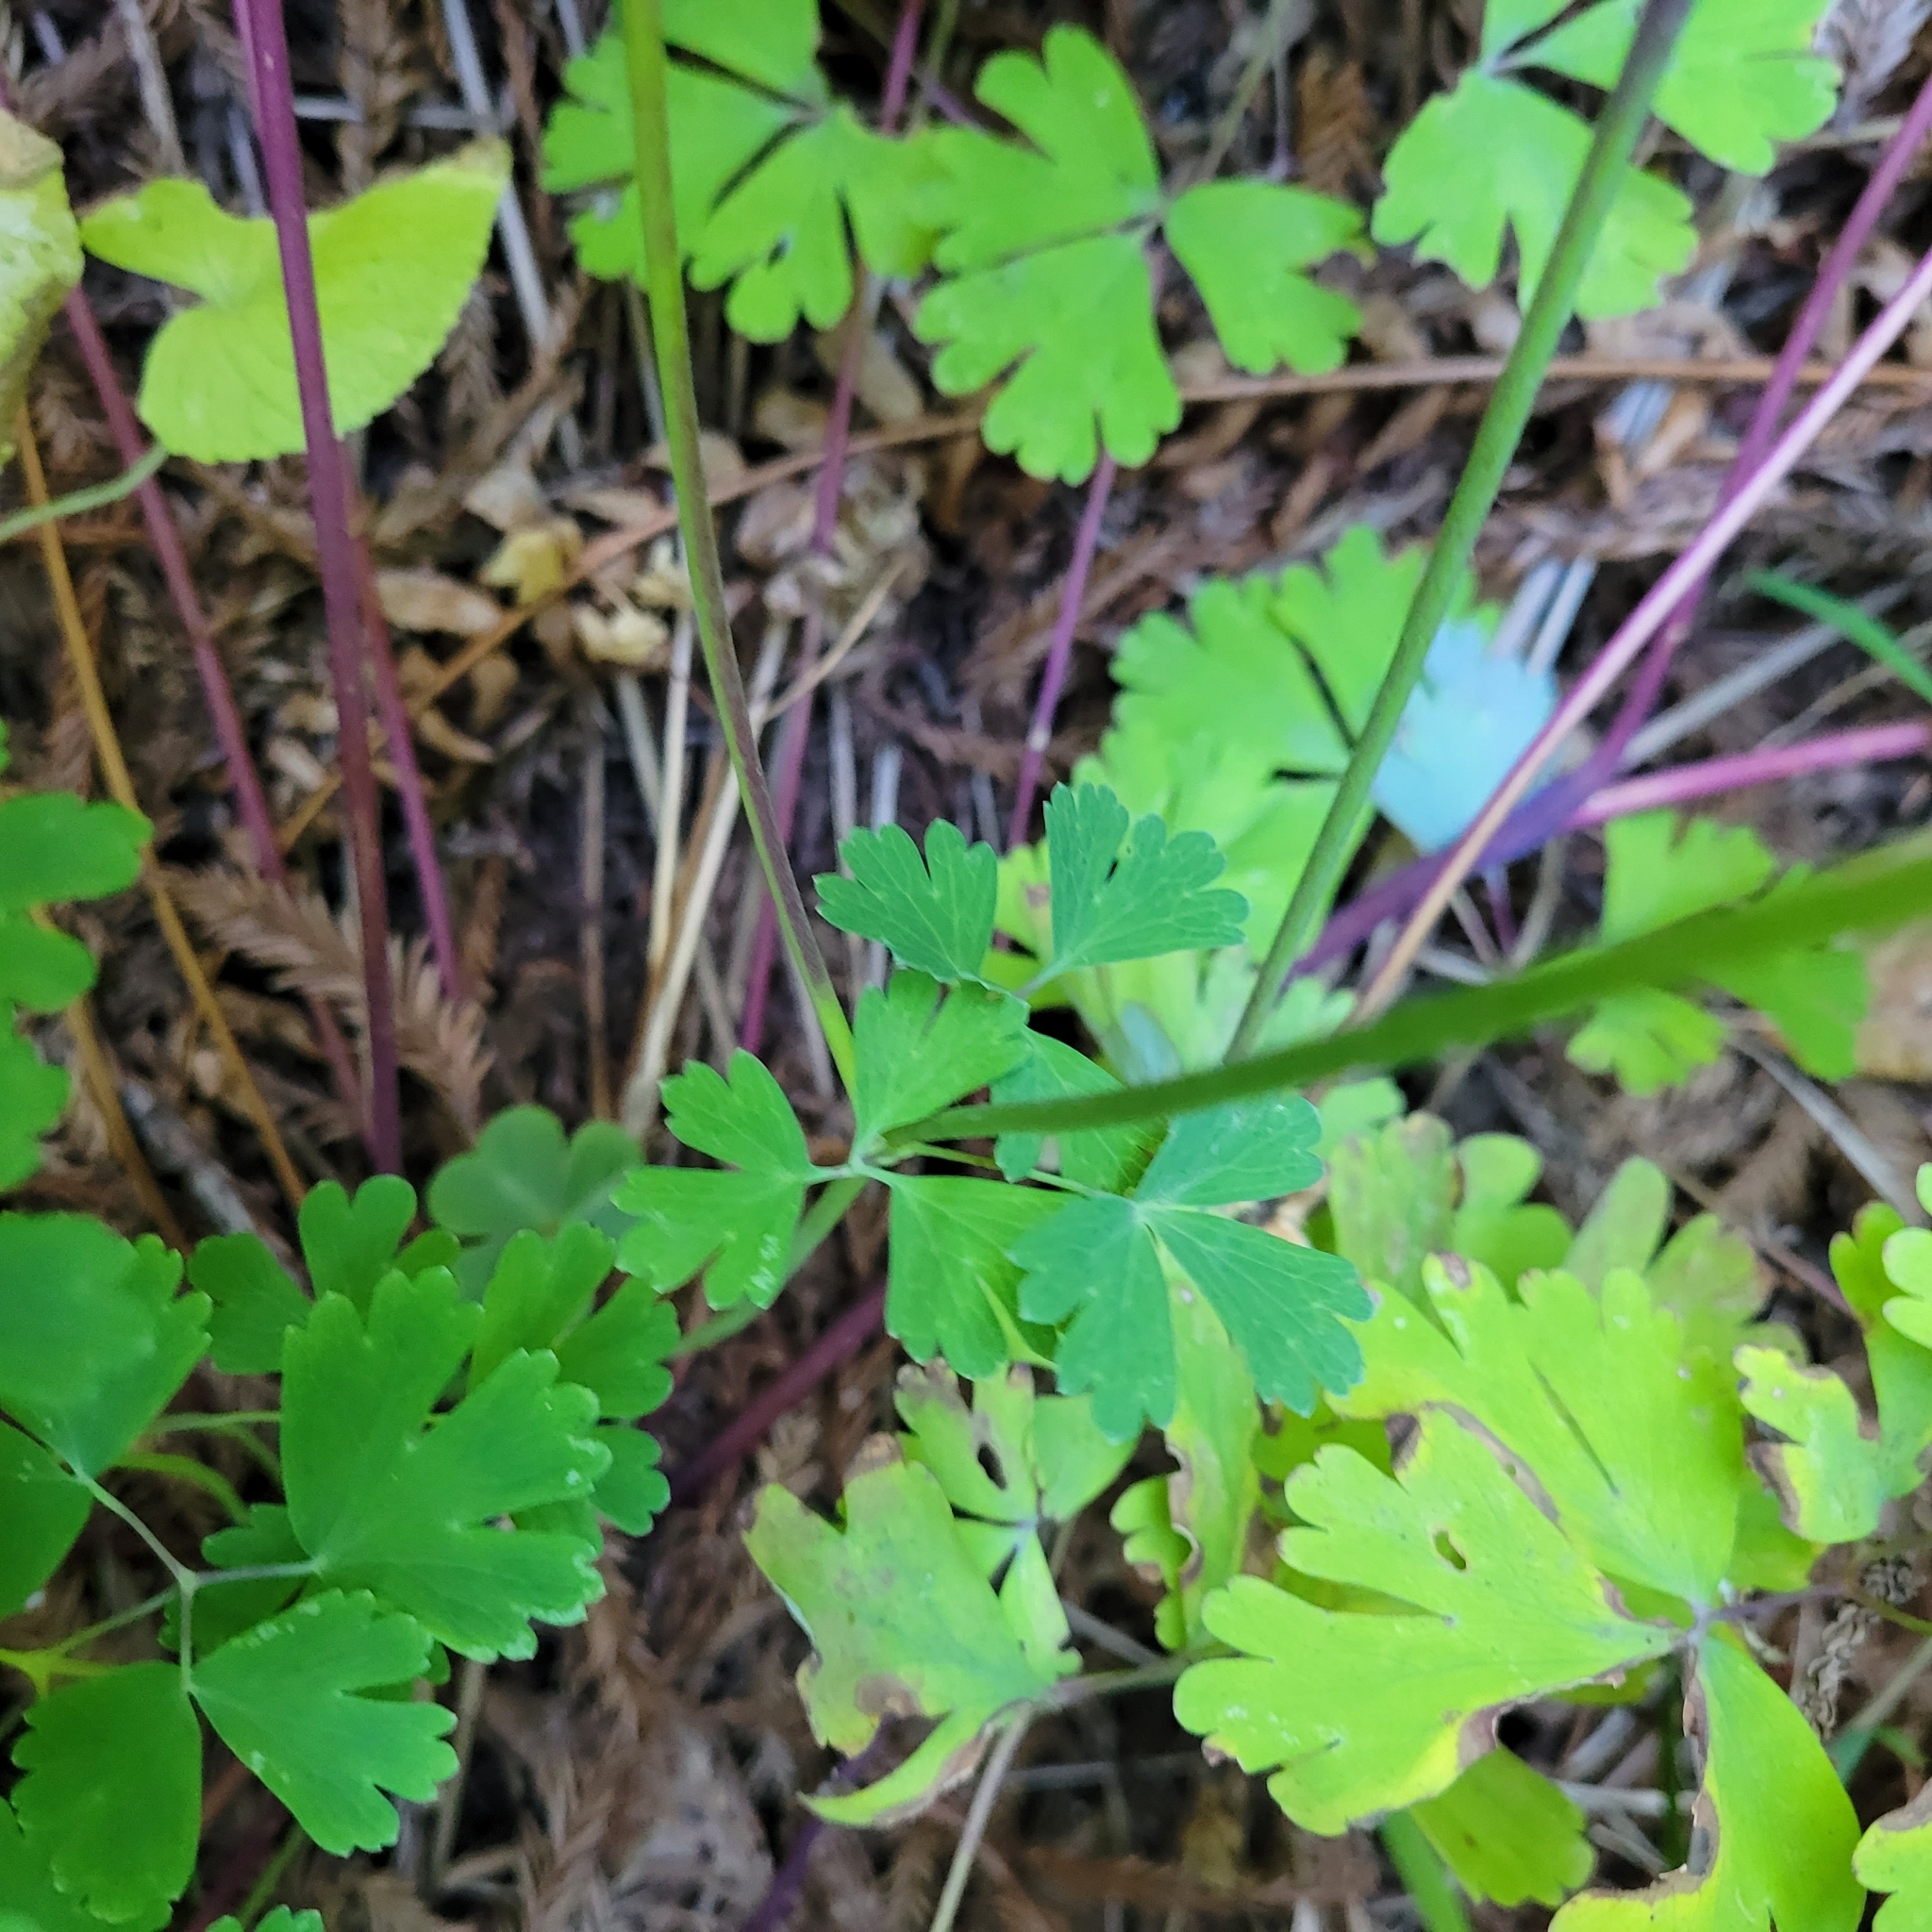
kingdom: Plantae
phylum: Tracheophyta
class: Magnoliopsida
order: Ranunculales
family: Ranunculaceae
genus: Aquilegia
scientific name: Aquilegia formosa
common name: Sitka columbine
